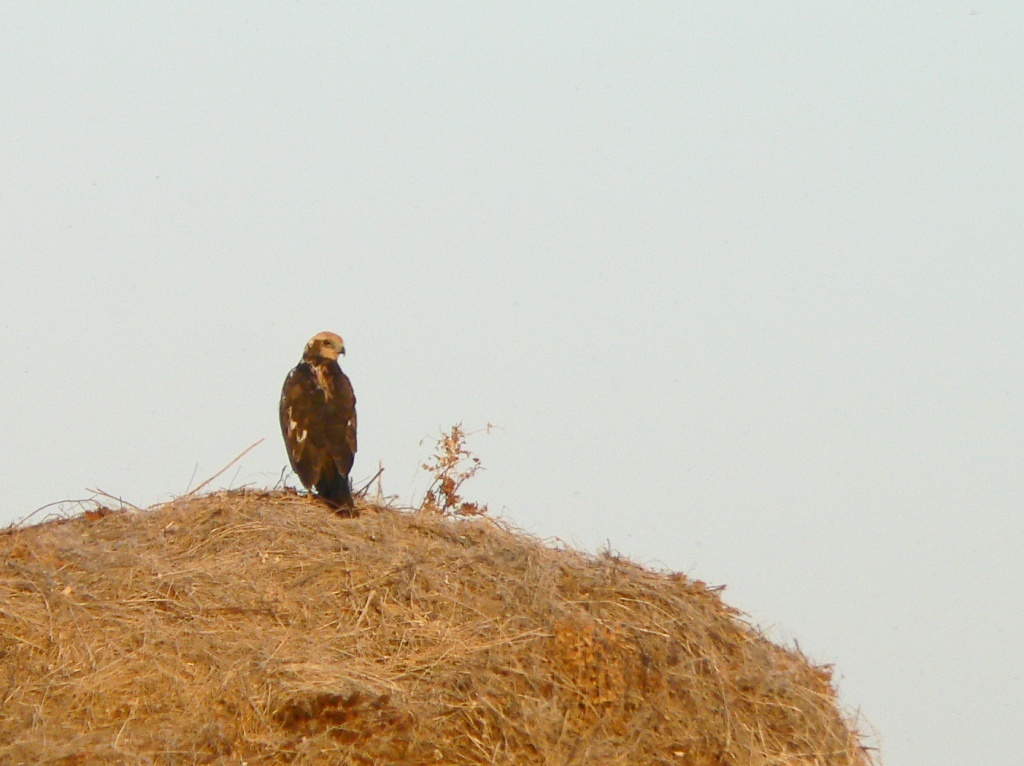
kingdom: Animalia
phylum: Chordata
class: Aves
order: Accipitriformes
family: Accipitridae
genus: Circus
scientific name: Circus aeruginosus
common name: Western marsh harrier
